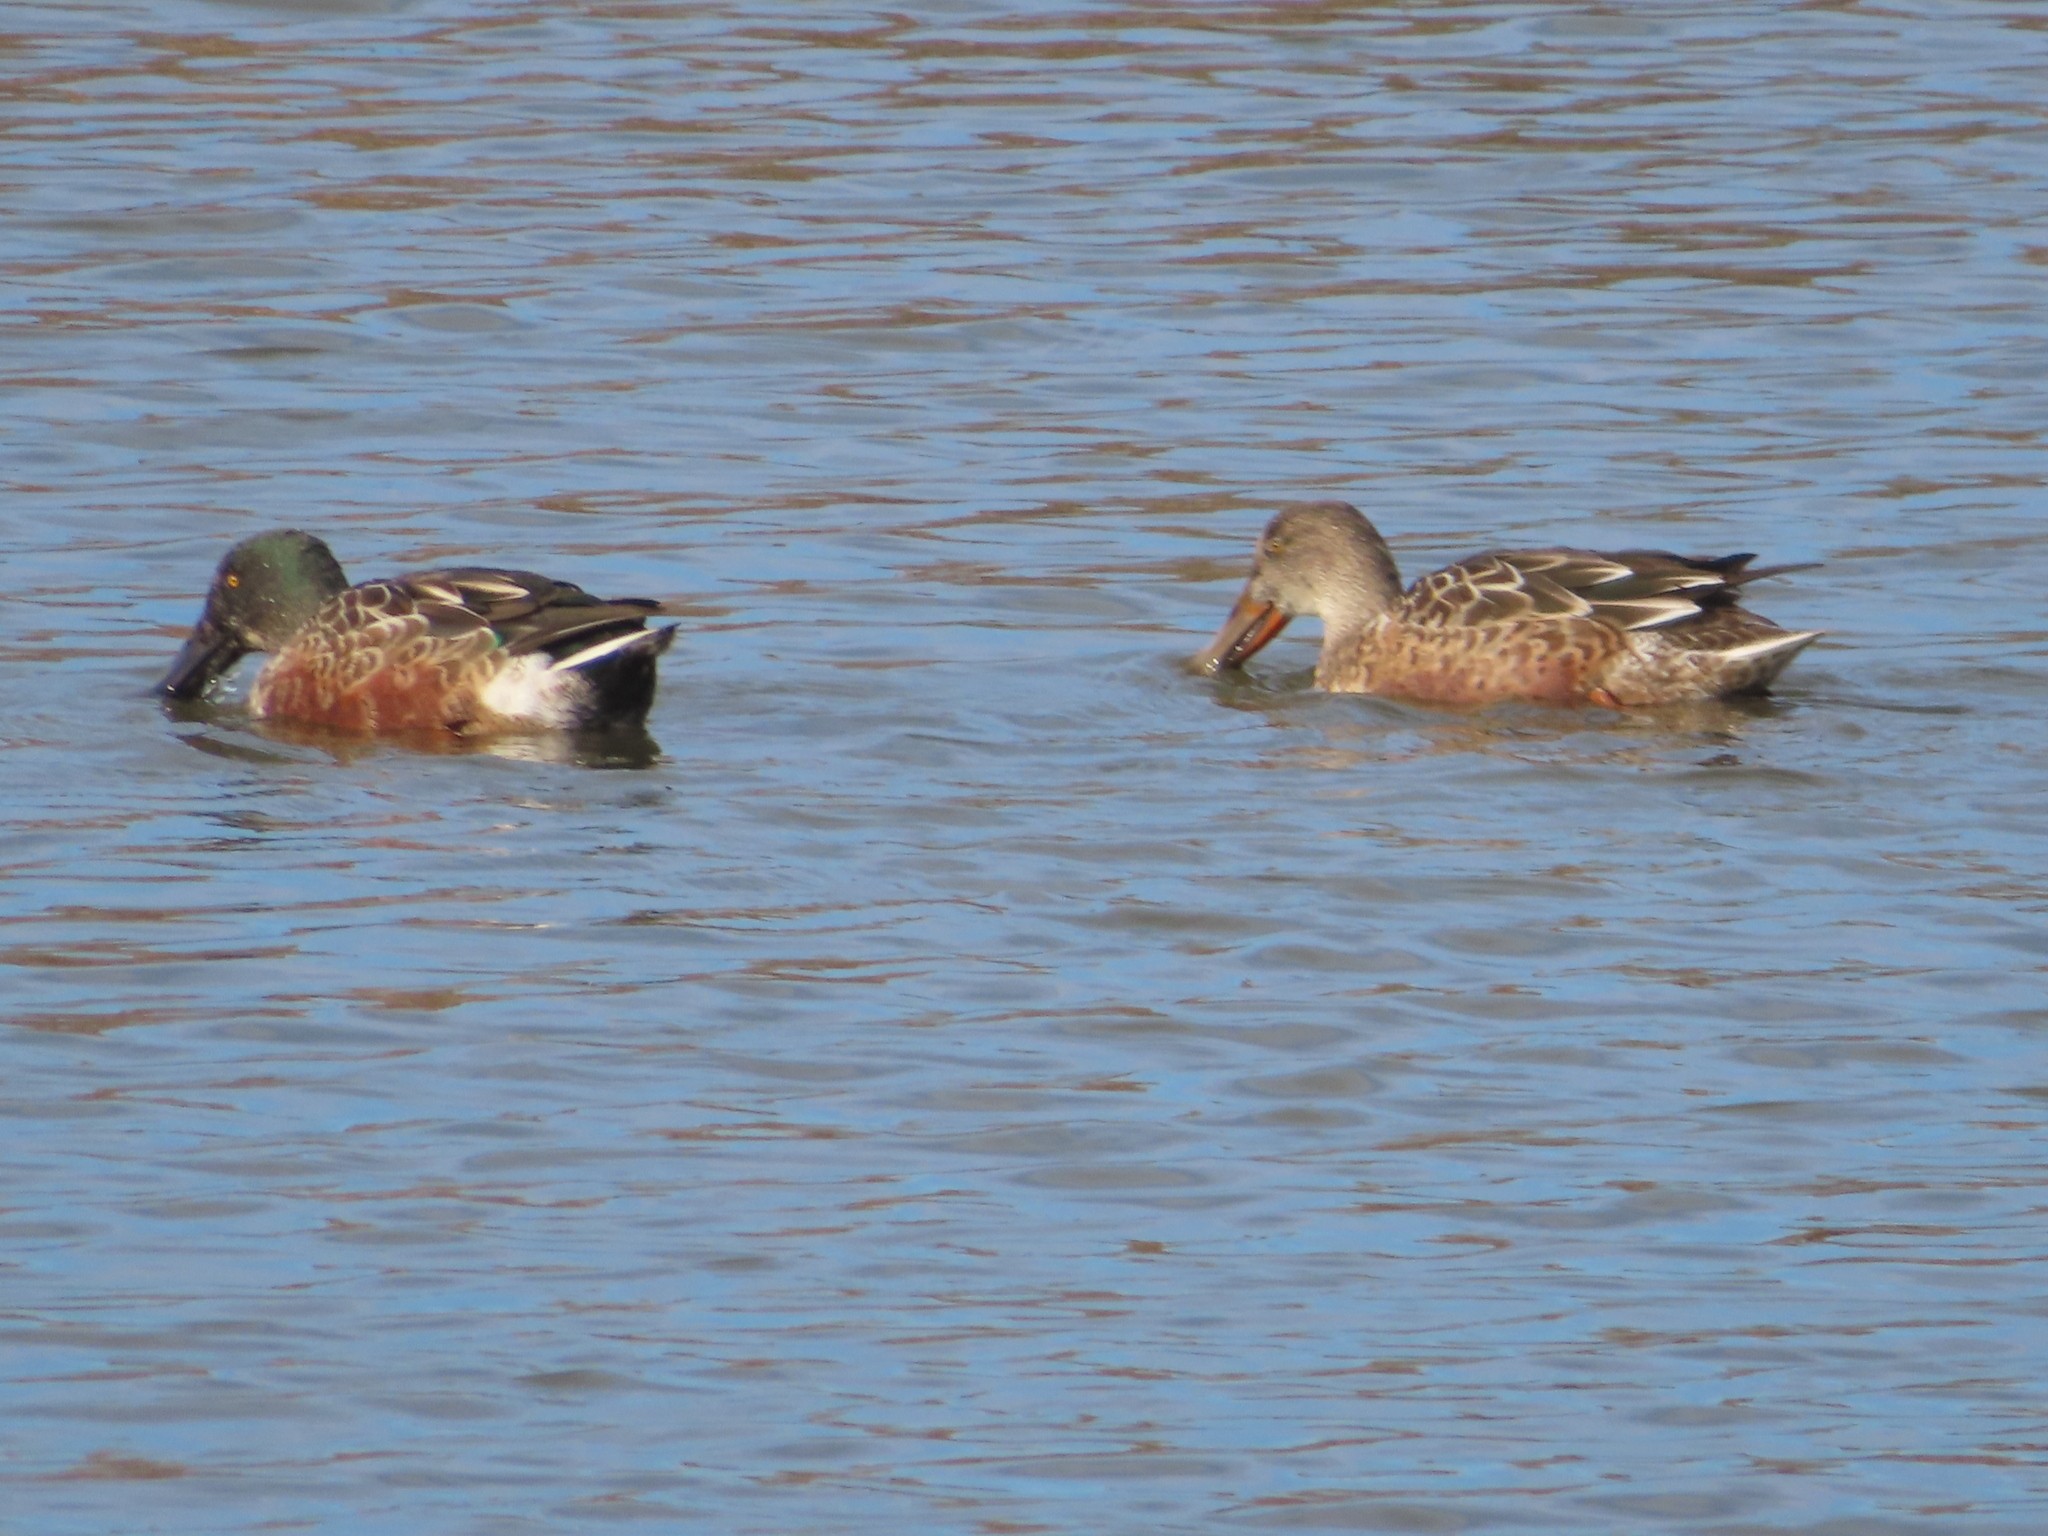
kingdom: Animalia
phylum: Chordata
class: Aves
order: Anseriformes
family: Anatidae
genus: Spatula
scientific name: Spatula clypeata
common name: Northern shoveler
